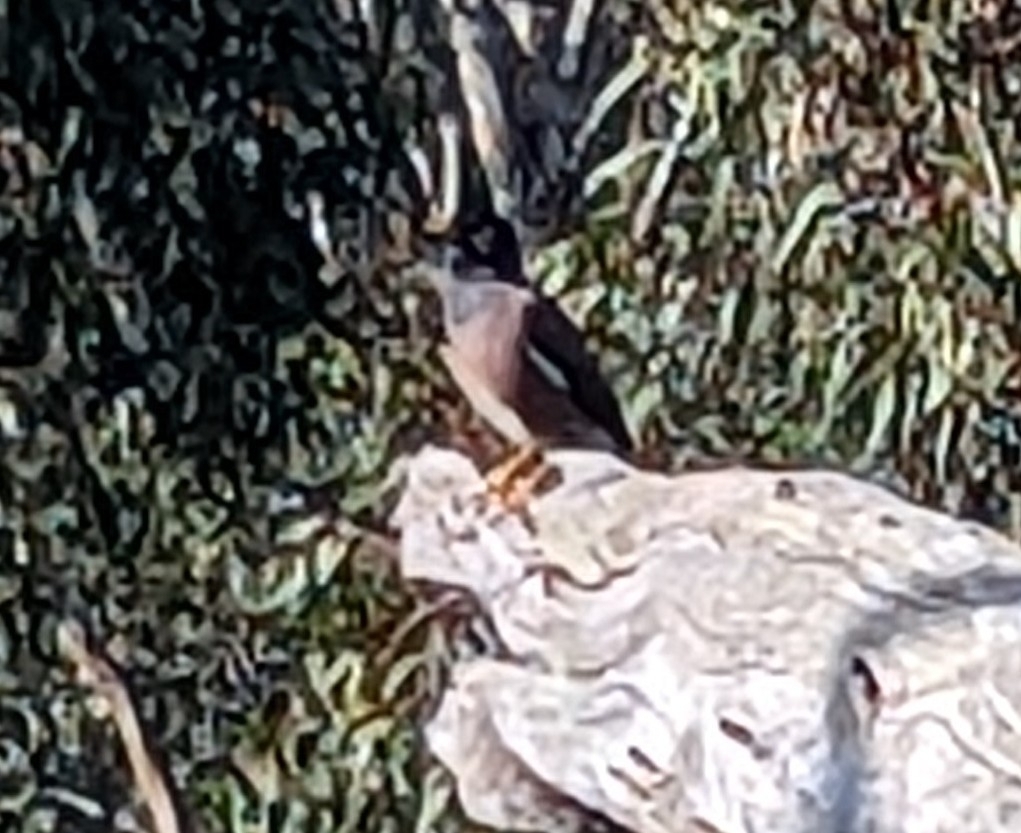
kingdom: Animalia
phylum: Chordata
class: Aves
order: Passeriformes
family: Sturnidae
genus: Acridotheres
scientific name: Acridotheres tristis
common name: Common myna
